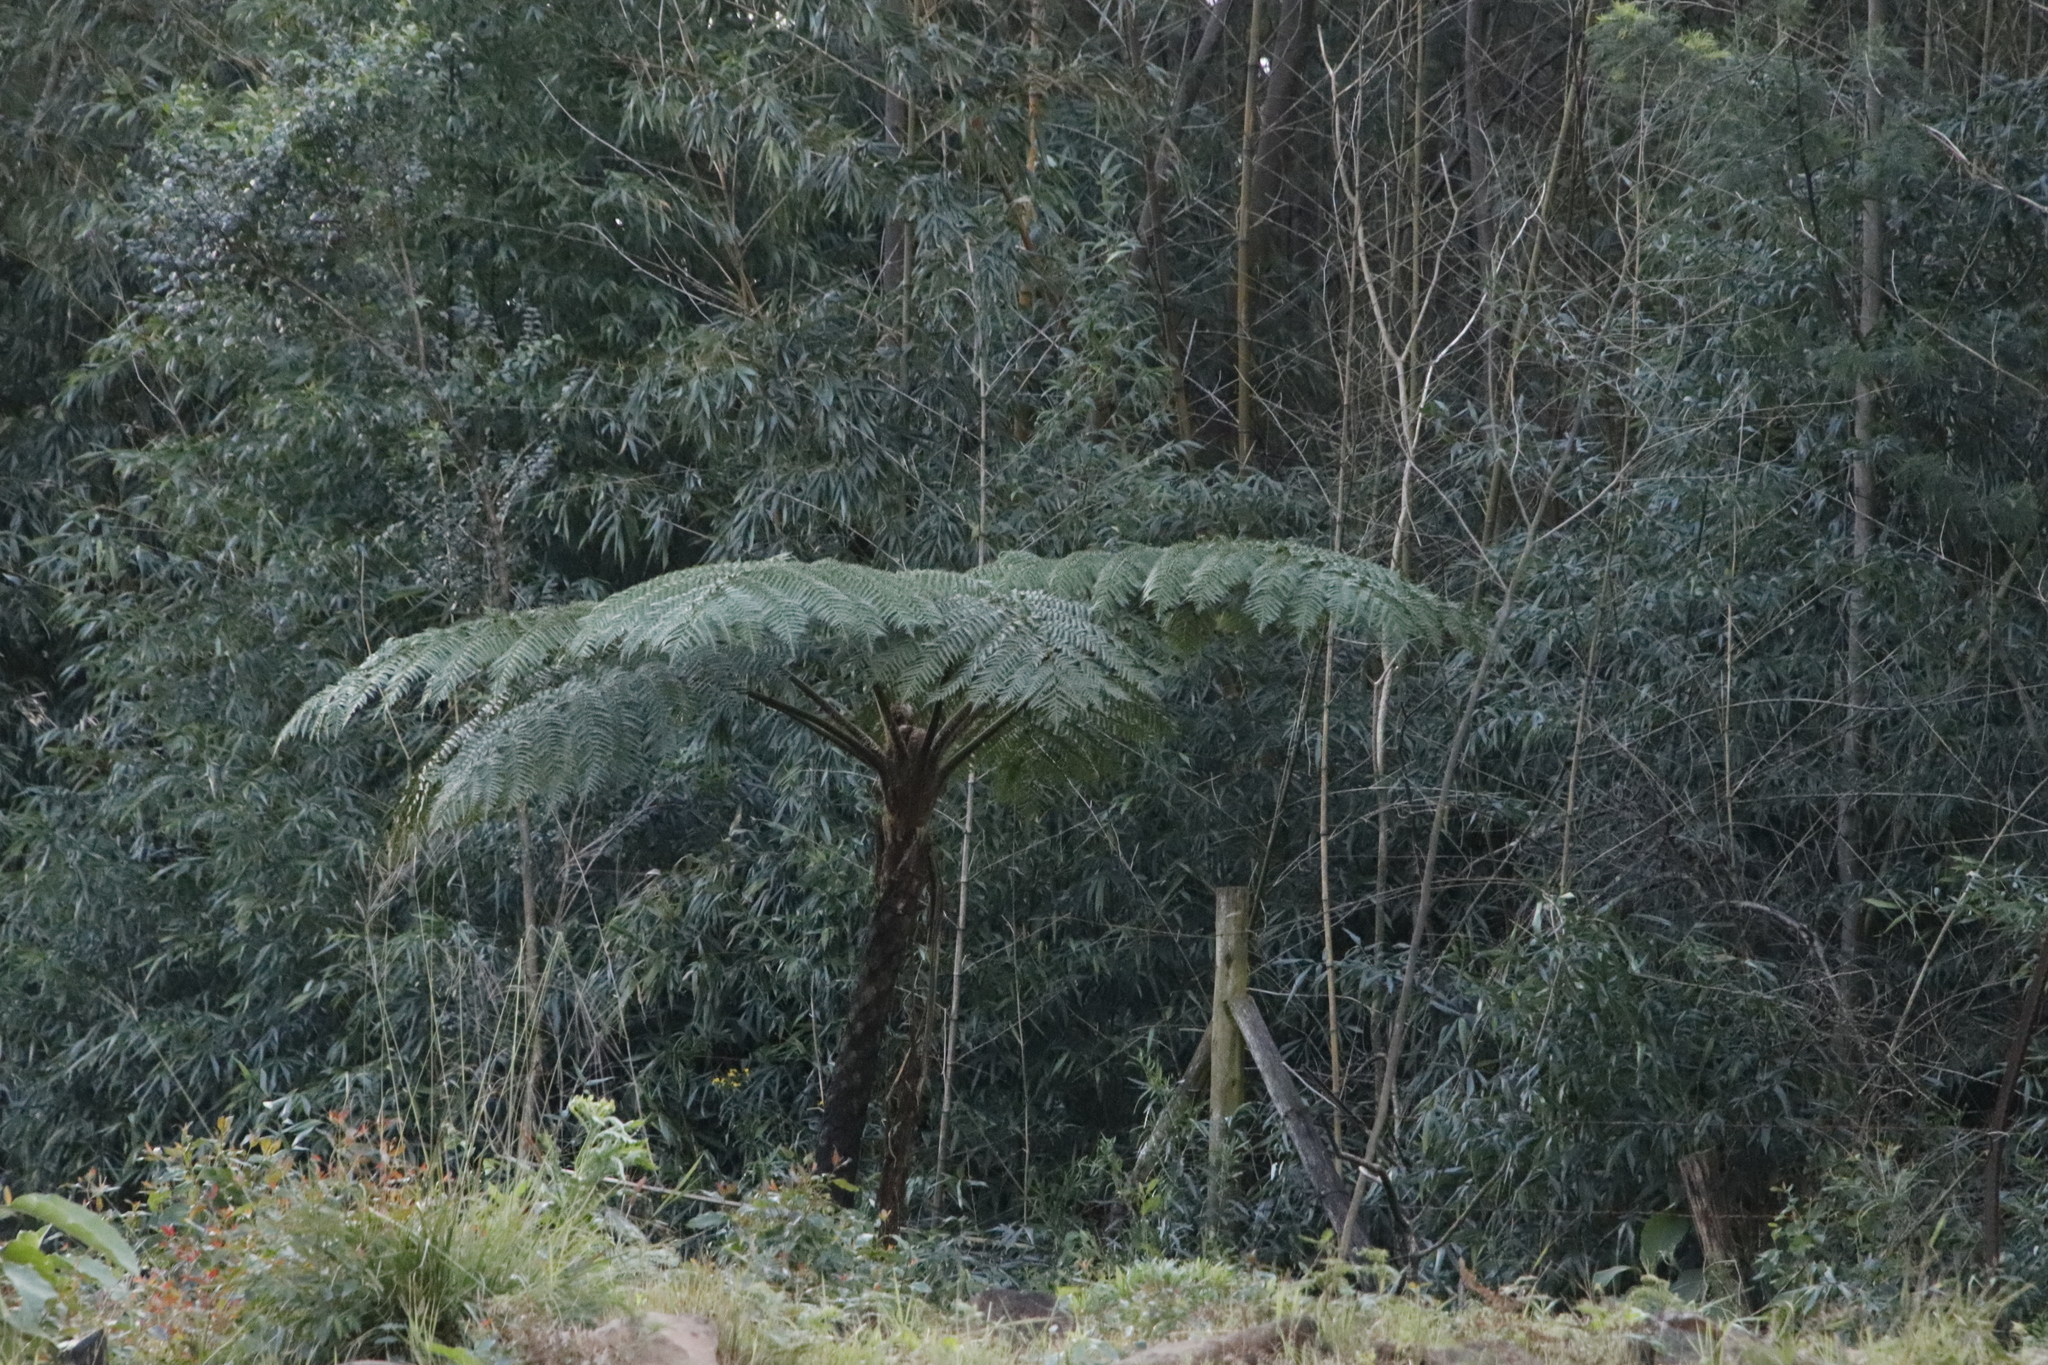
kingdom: Plantae
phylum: Tracheophyta
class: Polypodiopsida
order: Cyatheales
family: Cyatheaceae
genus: Sphaeropteris
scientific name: Sphaeropteris cooperi
